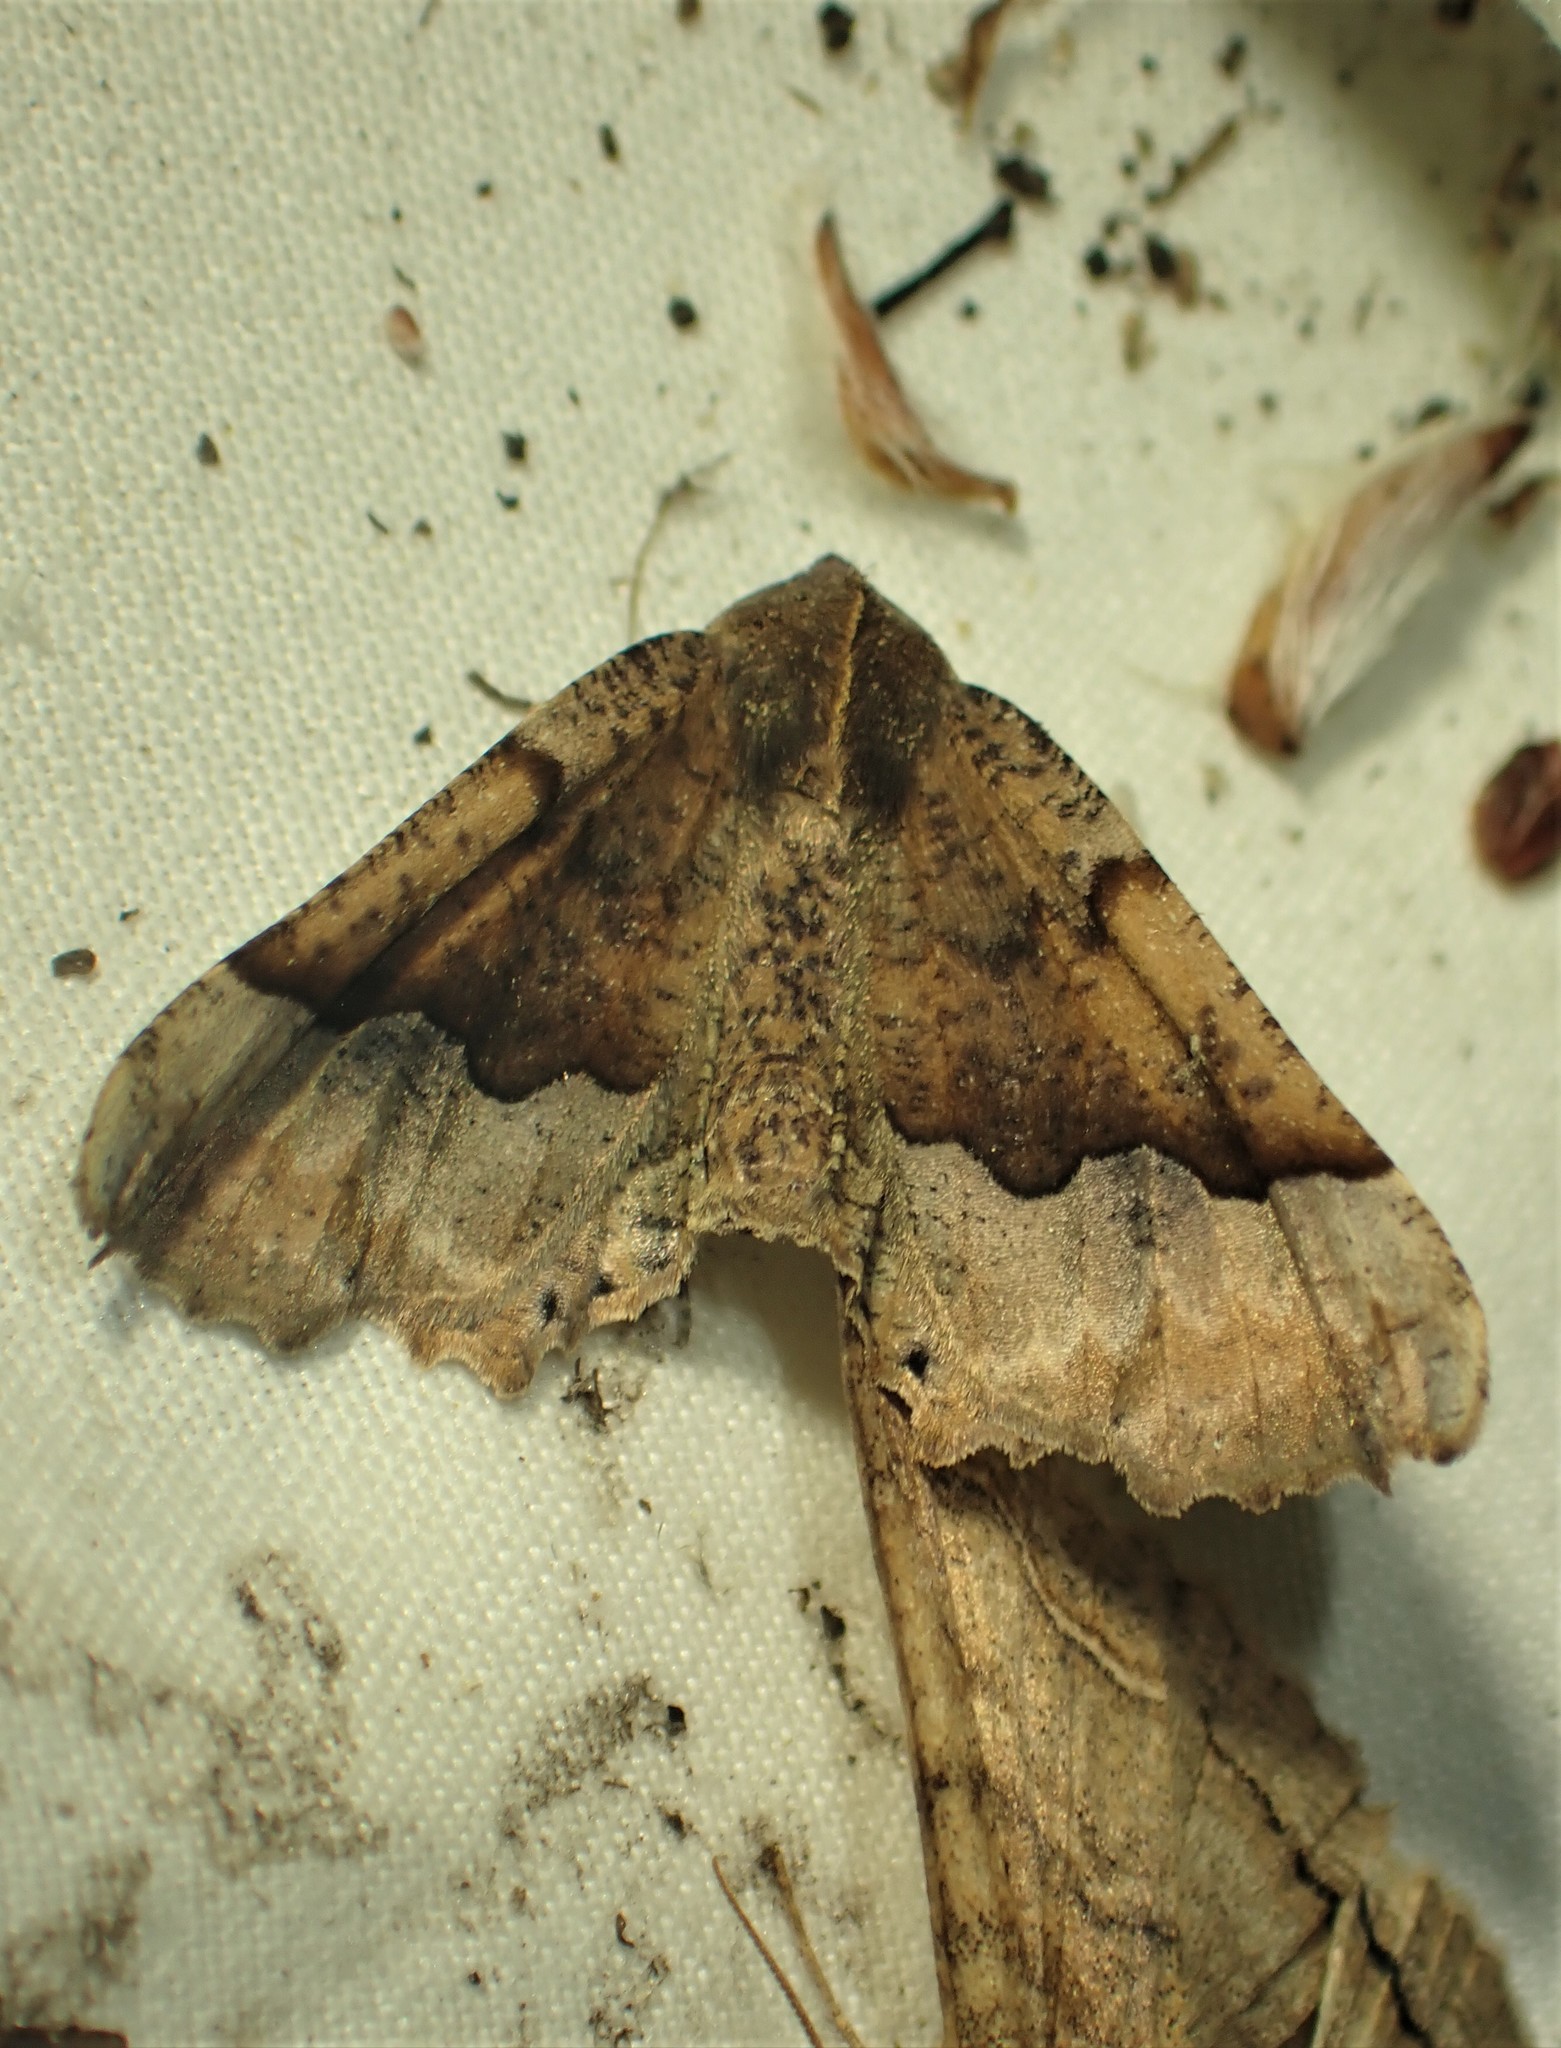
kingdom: Animalia
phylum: Arthropoda
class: Insecta
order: Lepidoptera
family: Geometridae
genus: Pero
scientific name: Pero morrisonaria
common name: Morrison's pero
